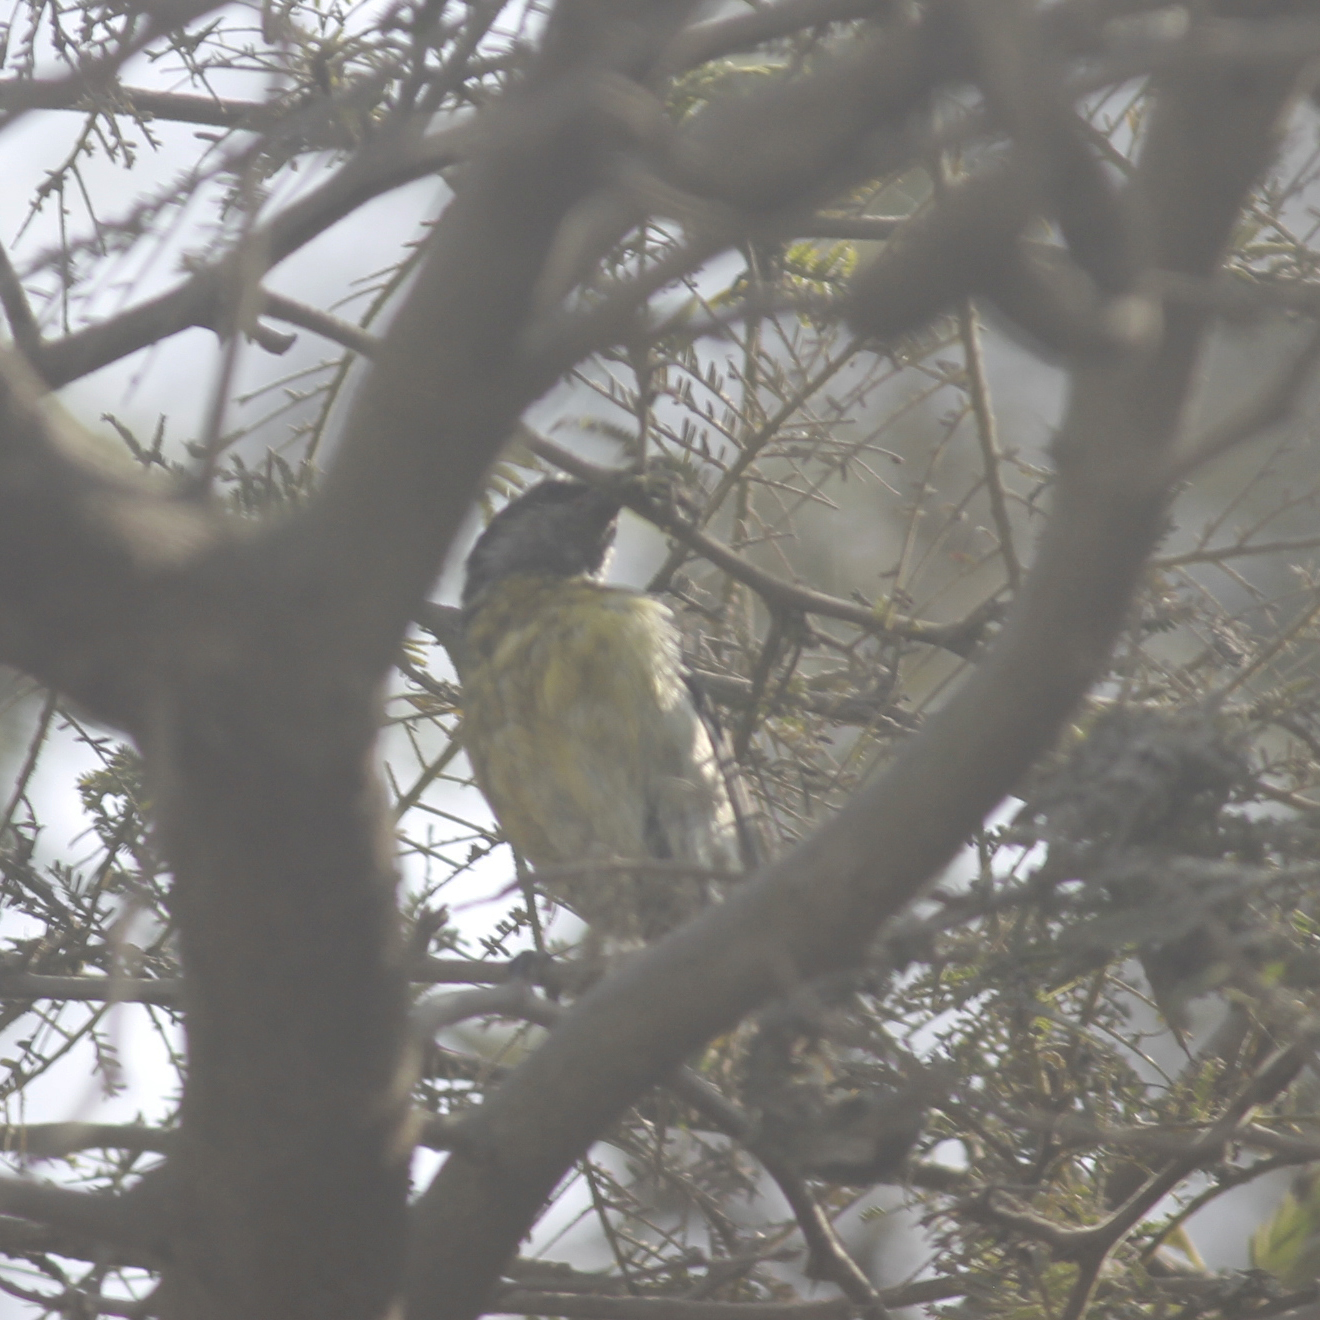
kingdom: Animalia
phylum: Chordata
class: Aves
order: Passeriformes
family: Thraupidae
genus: Coereba
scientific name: Coereba flaveola
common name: Bananaquit
